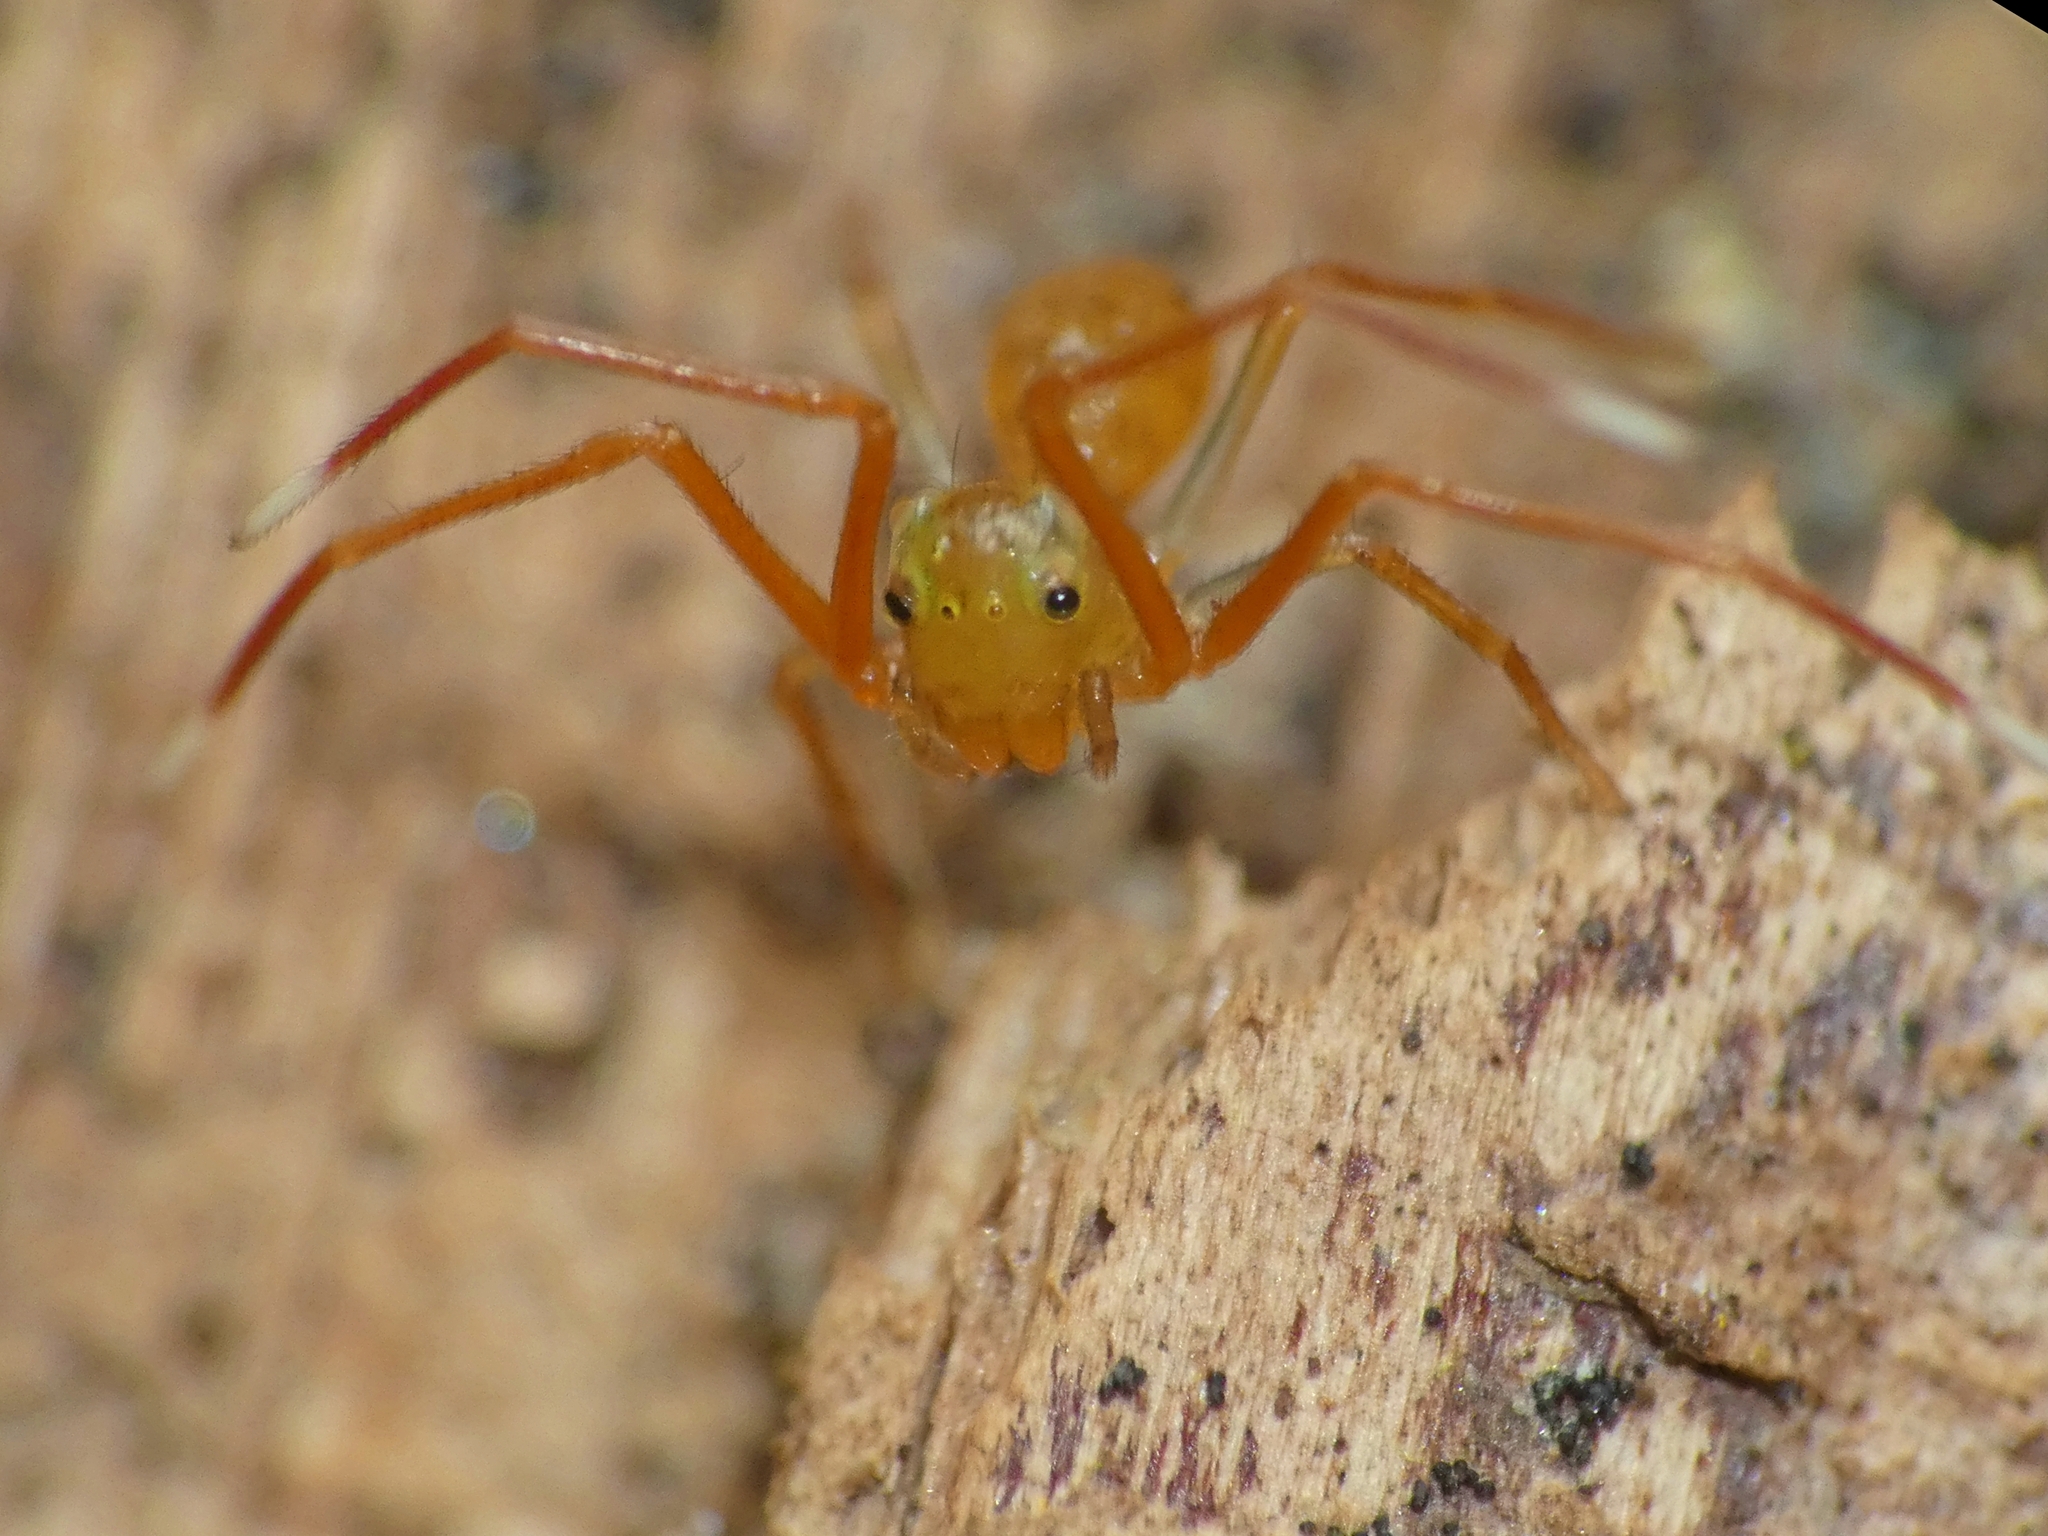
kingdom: Animalia
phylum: Arthropoda
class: Arachnida
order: Araneae
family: Thomisidae
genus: Amyciaea
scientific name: Amyciaea albomaculata
